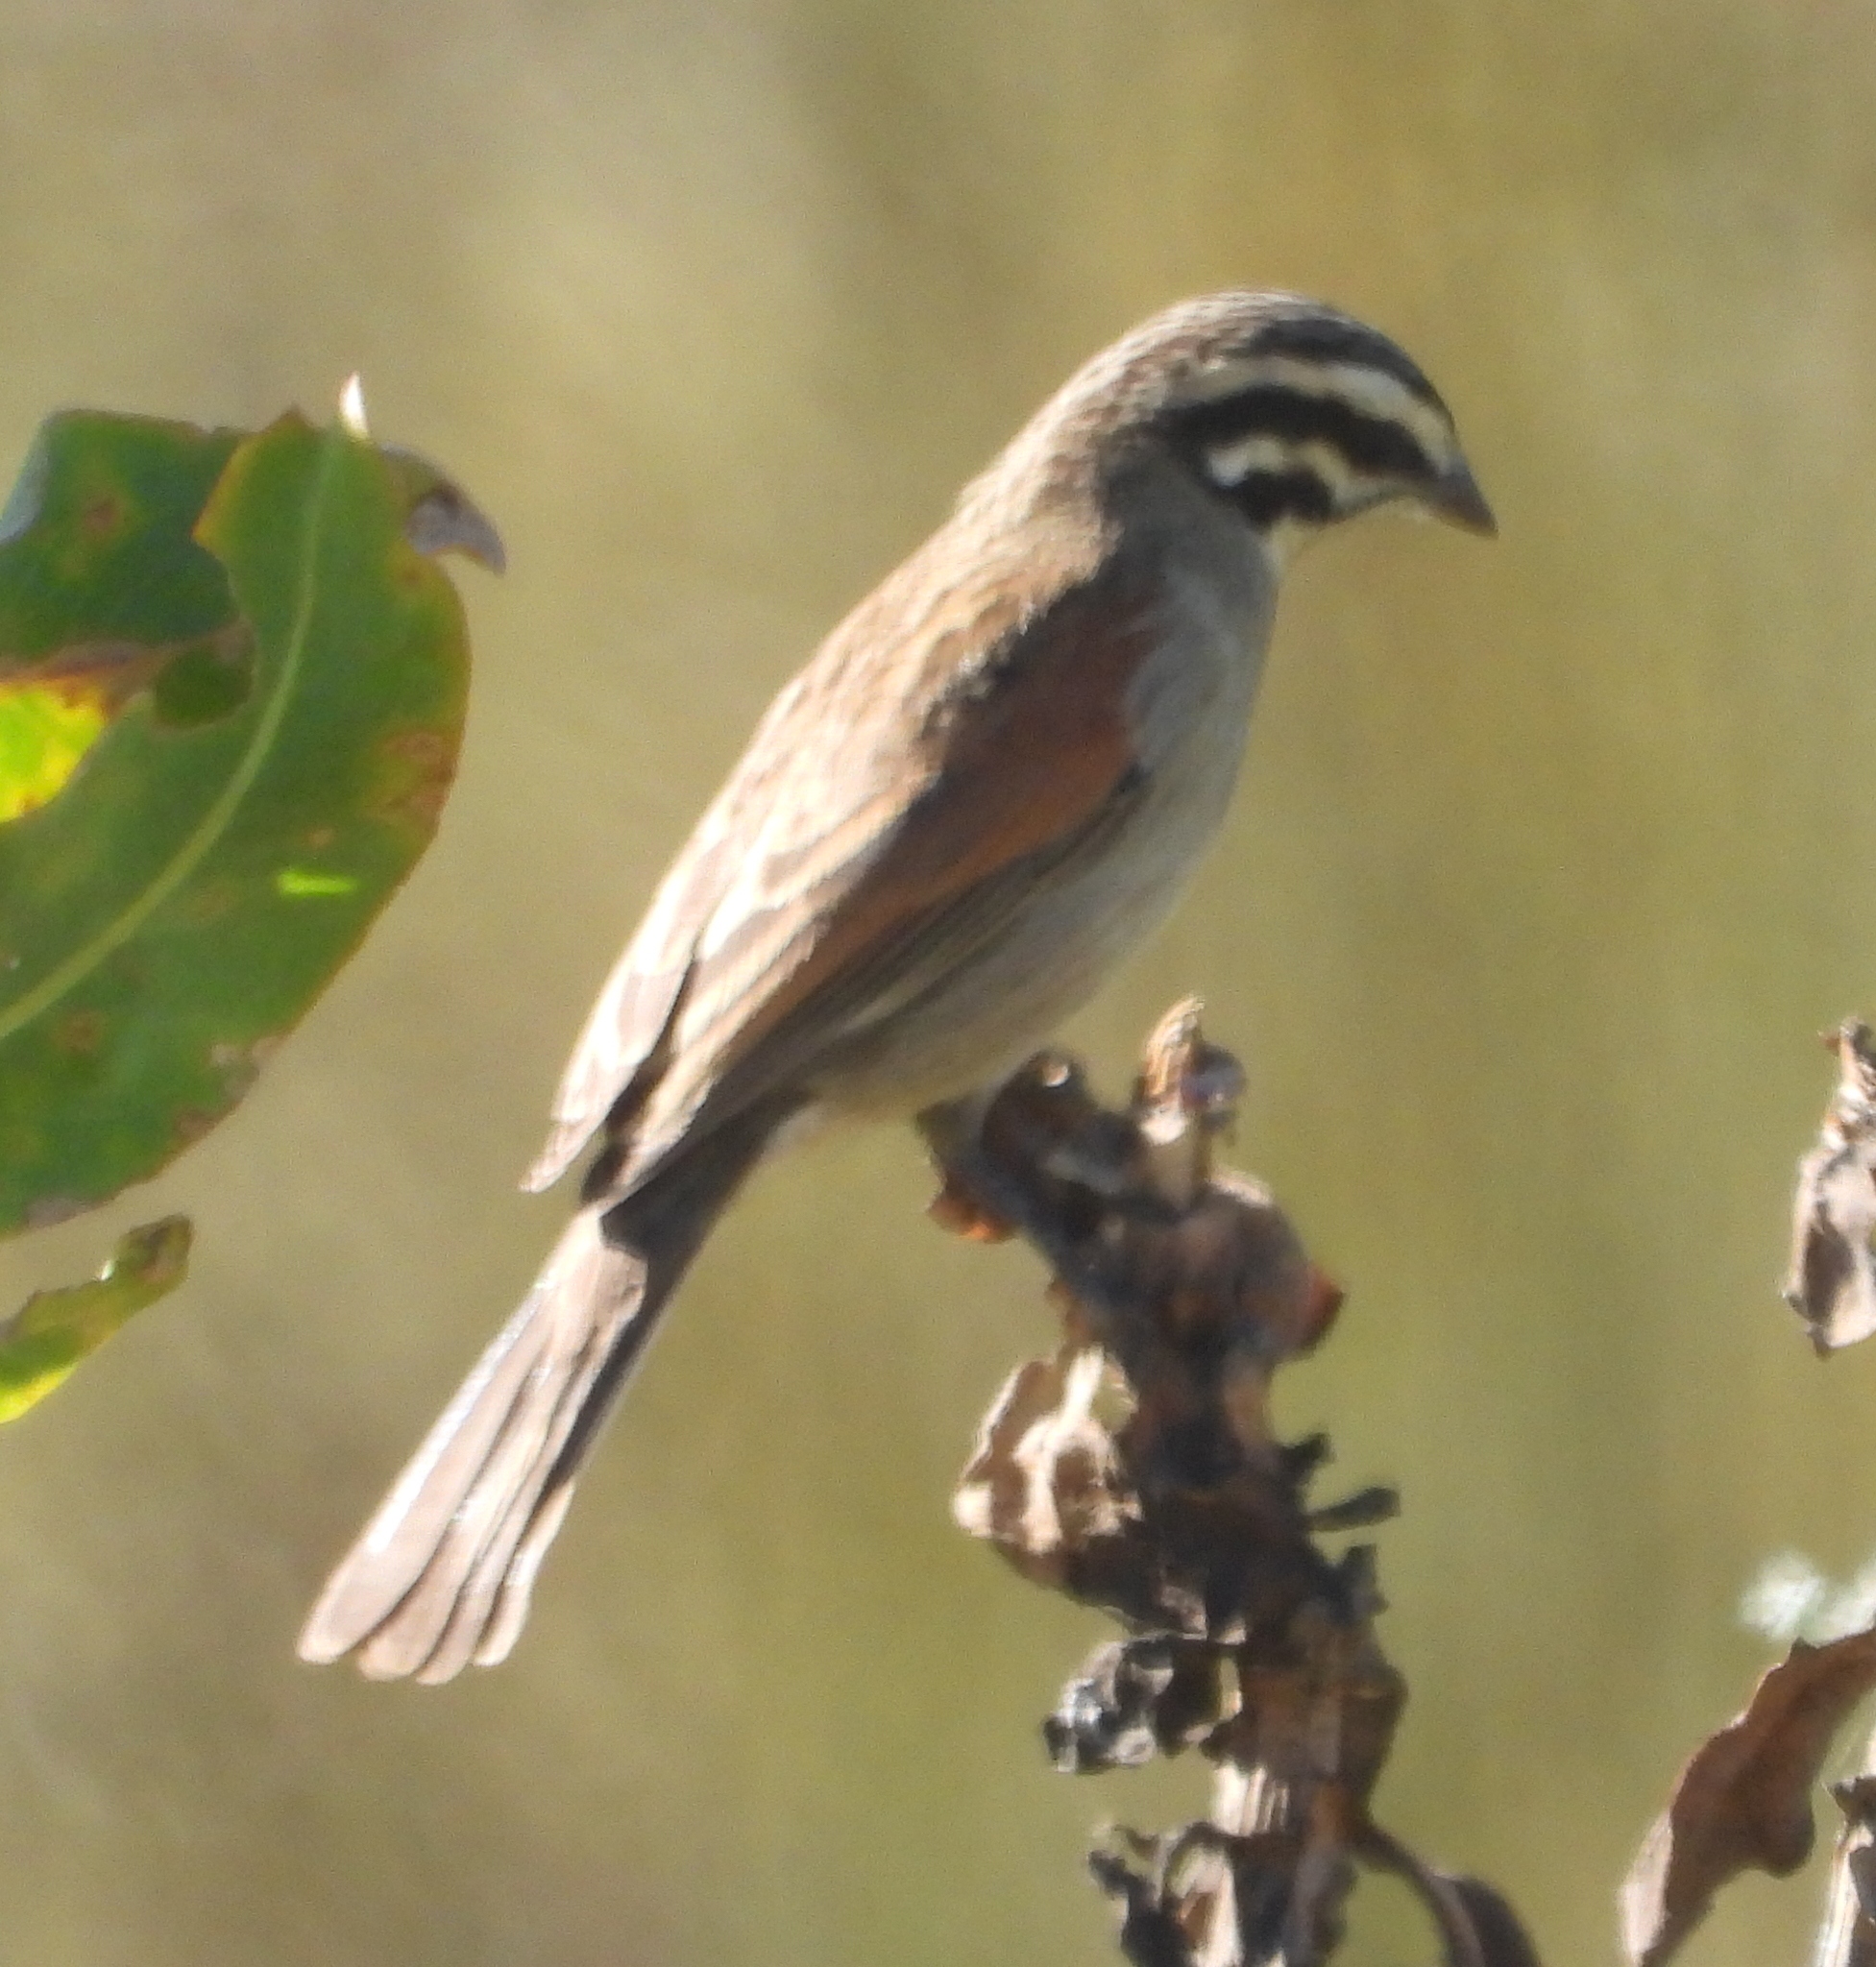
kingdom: Animalia
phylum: Chordata
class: Aves
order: Passeriformes
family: Emberizidae
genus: Emberiza
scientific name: Emberiza capensis
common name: Cape bunting
